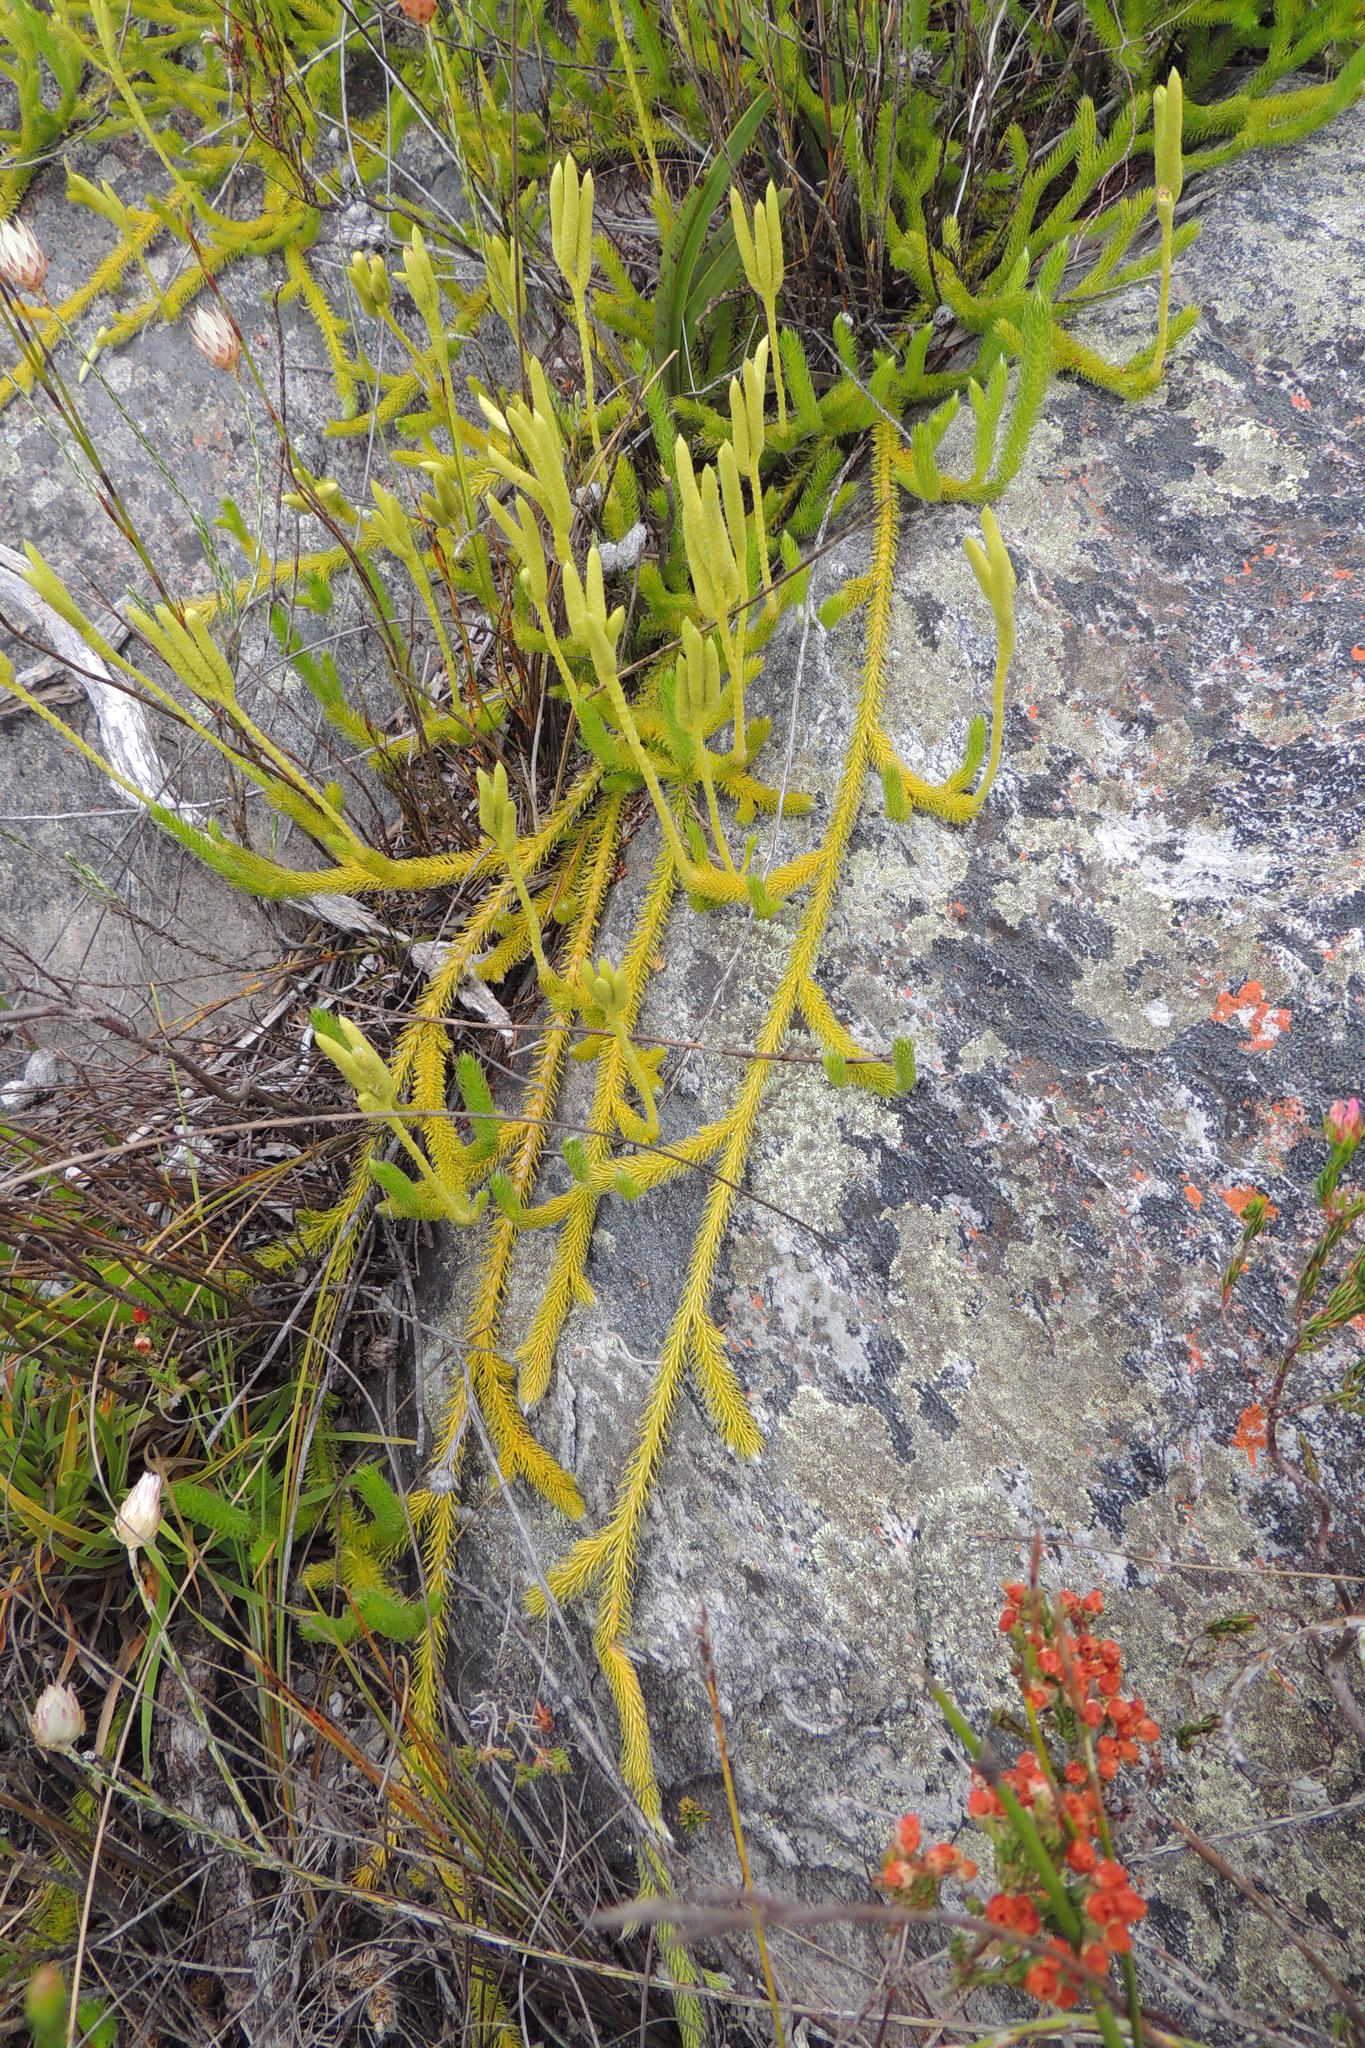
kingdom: Plantae
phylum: Tracheophyta
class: Lycopodiopsida
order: Lycopodiales
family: Lycopodiaceae
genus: Lycopodium
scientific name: Lycopodium clavatum
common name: Stag's-horn clubmoss
